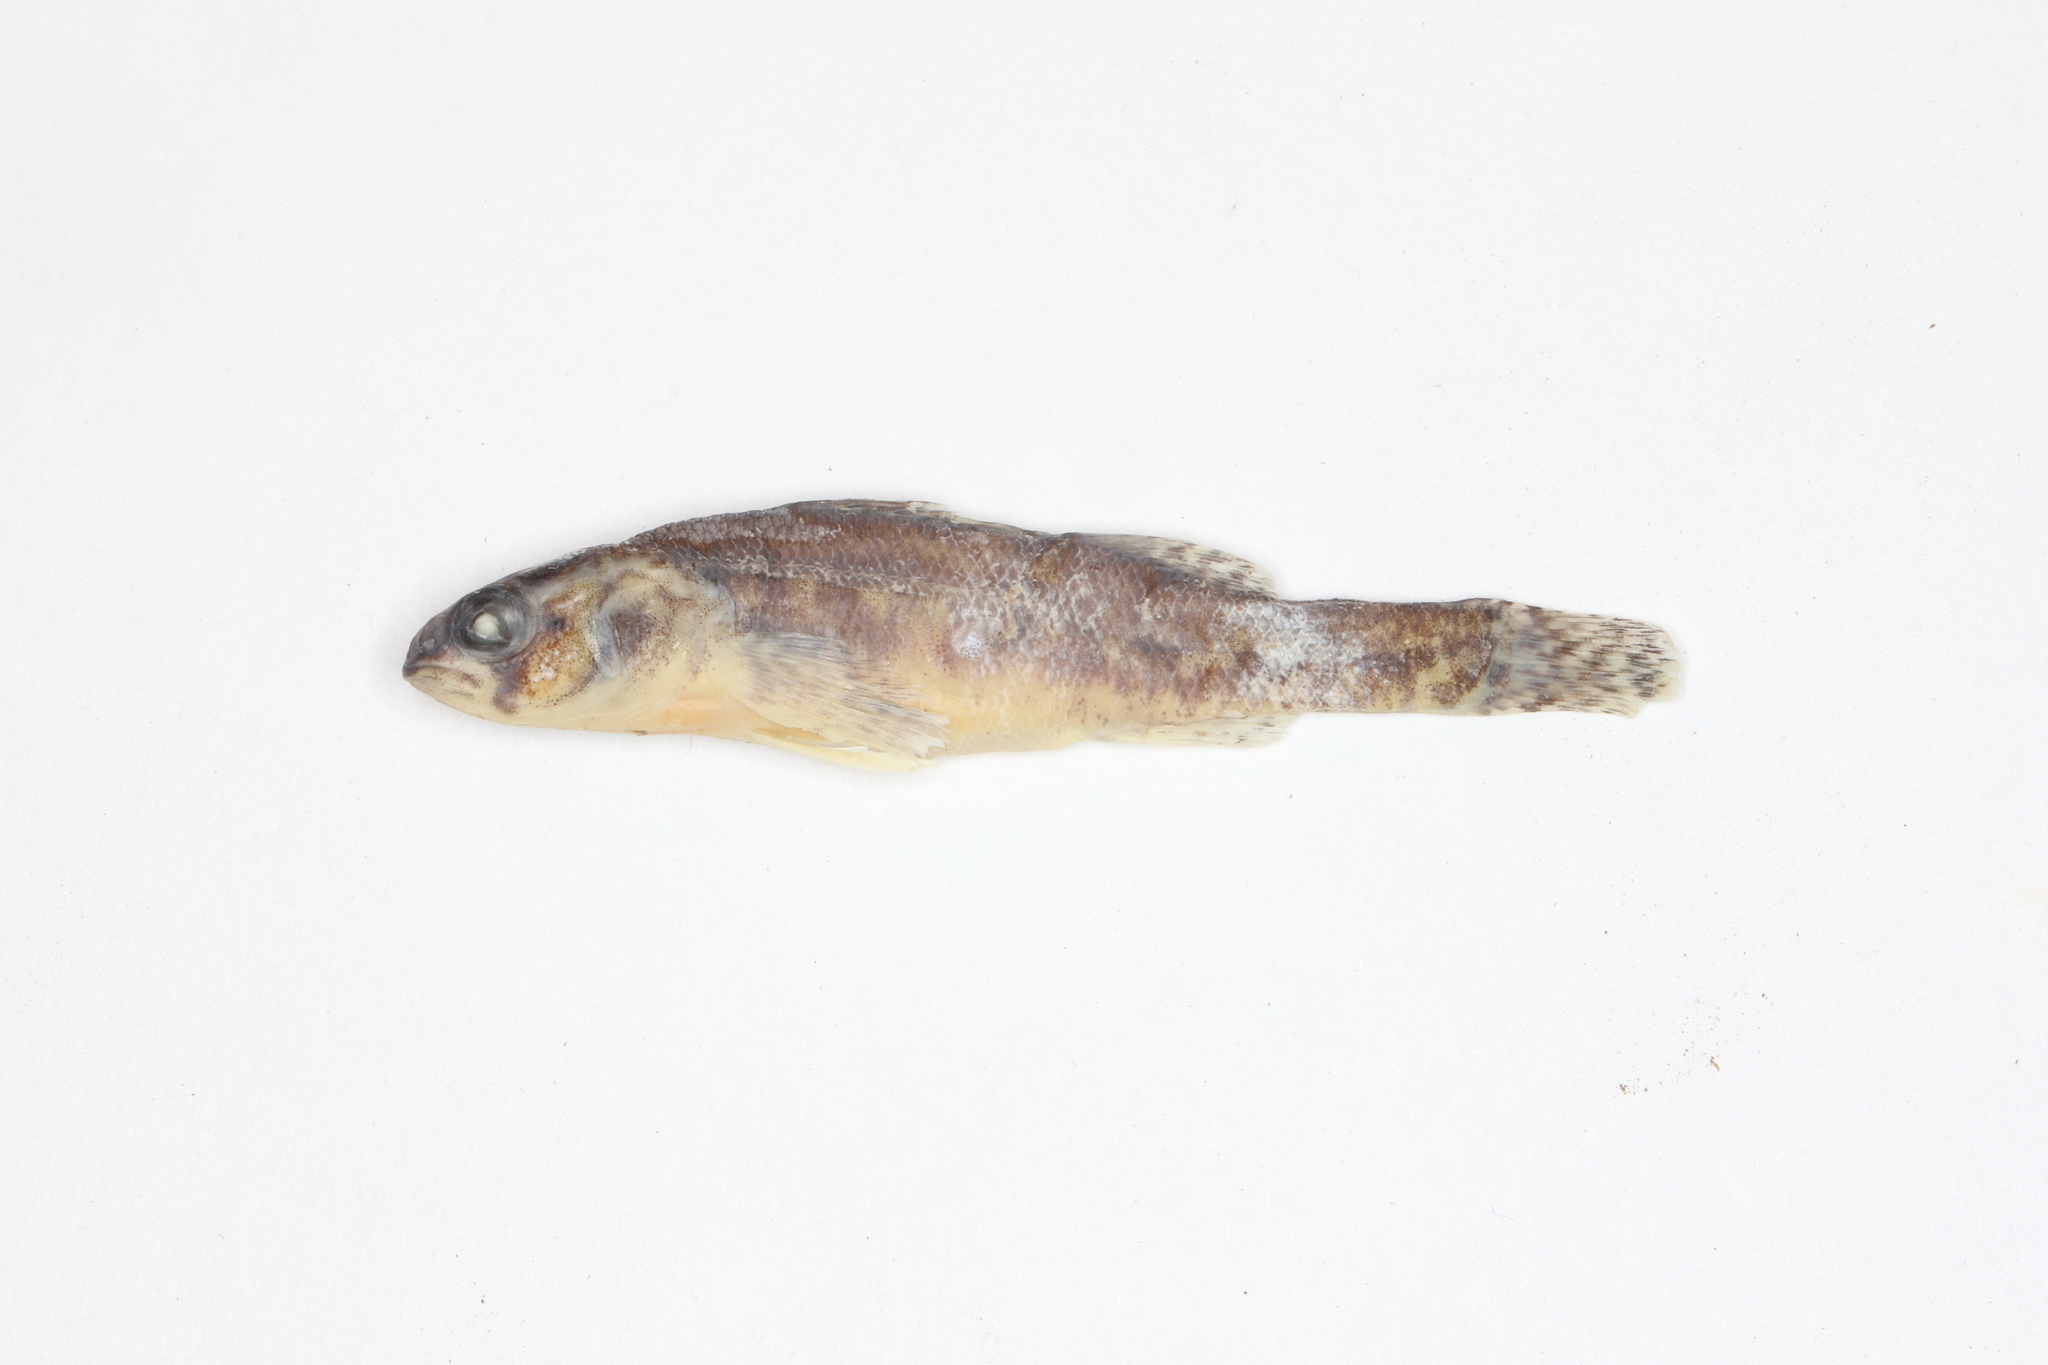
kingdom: Animalia
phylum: Chordata
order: Perciformes
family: Percidae
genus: Etheostoma
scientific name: Etheostoma exile
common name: Iowa darter
